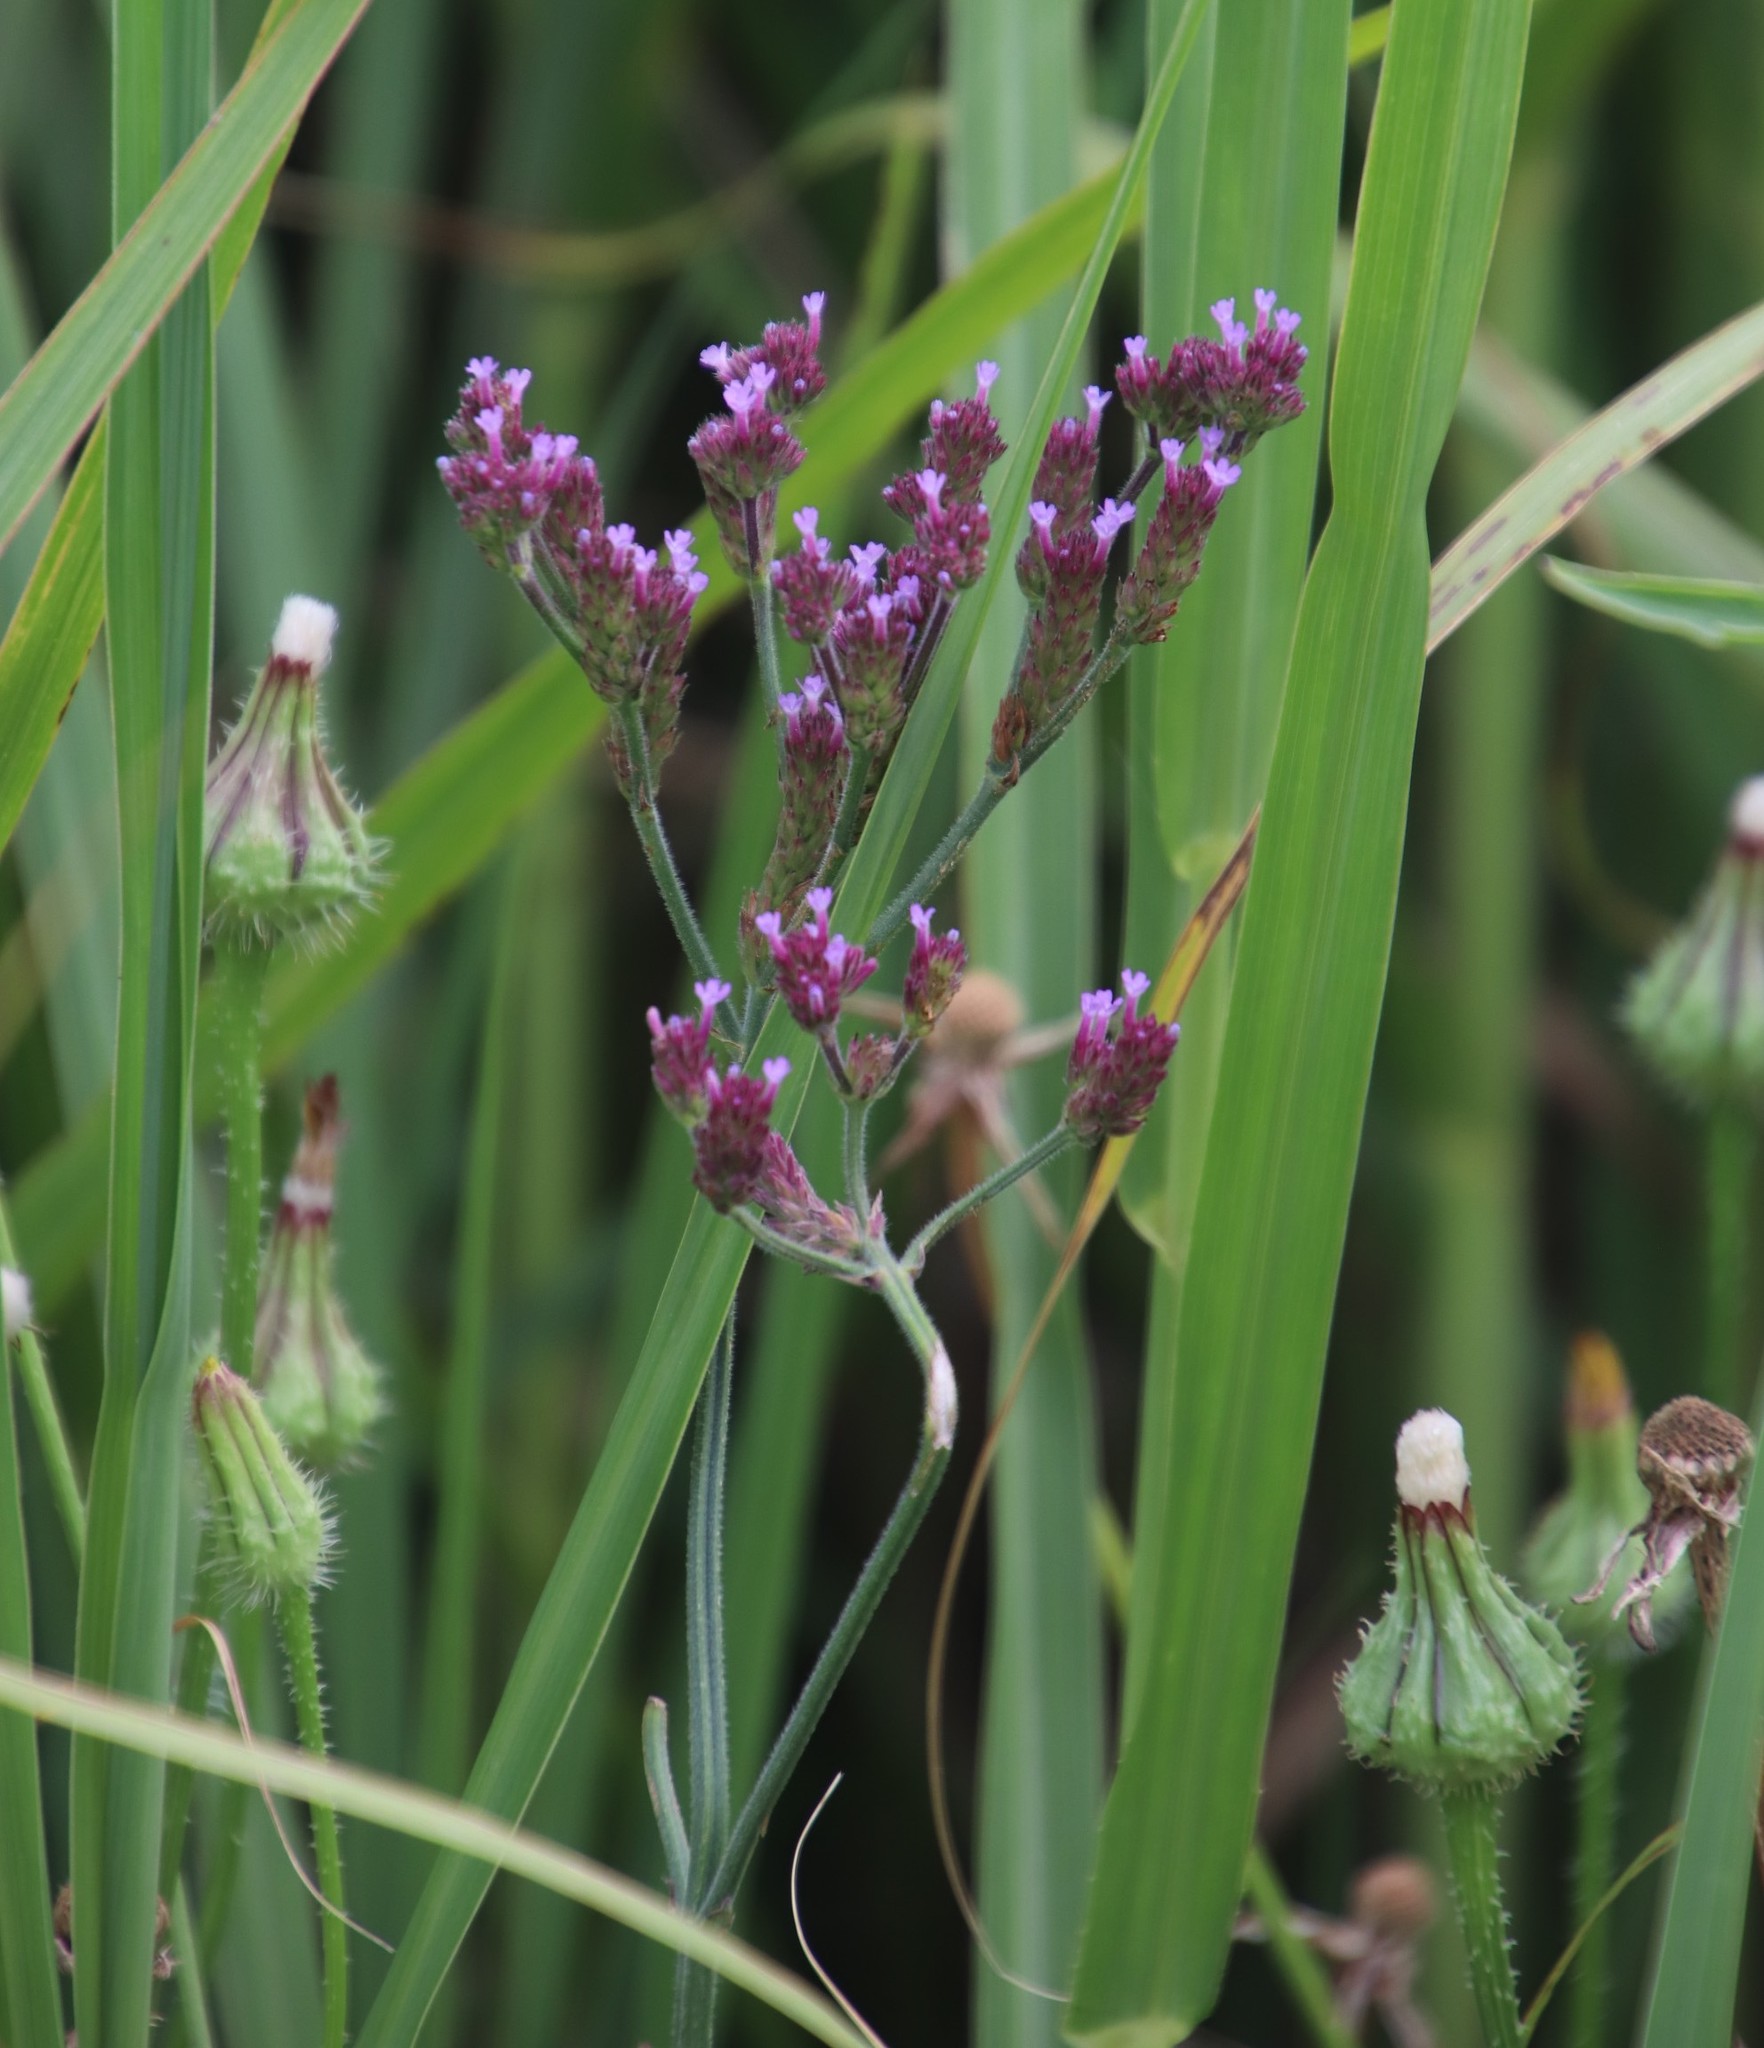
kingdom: Plantae
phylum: Tracheophyta
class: Magnoliopsida
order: Lamiales
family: Verbenaceae
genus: Verbena
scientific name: Verbena bonariensis
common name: Purpletop vervain
